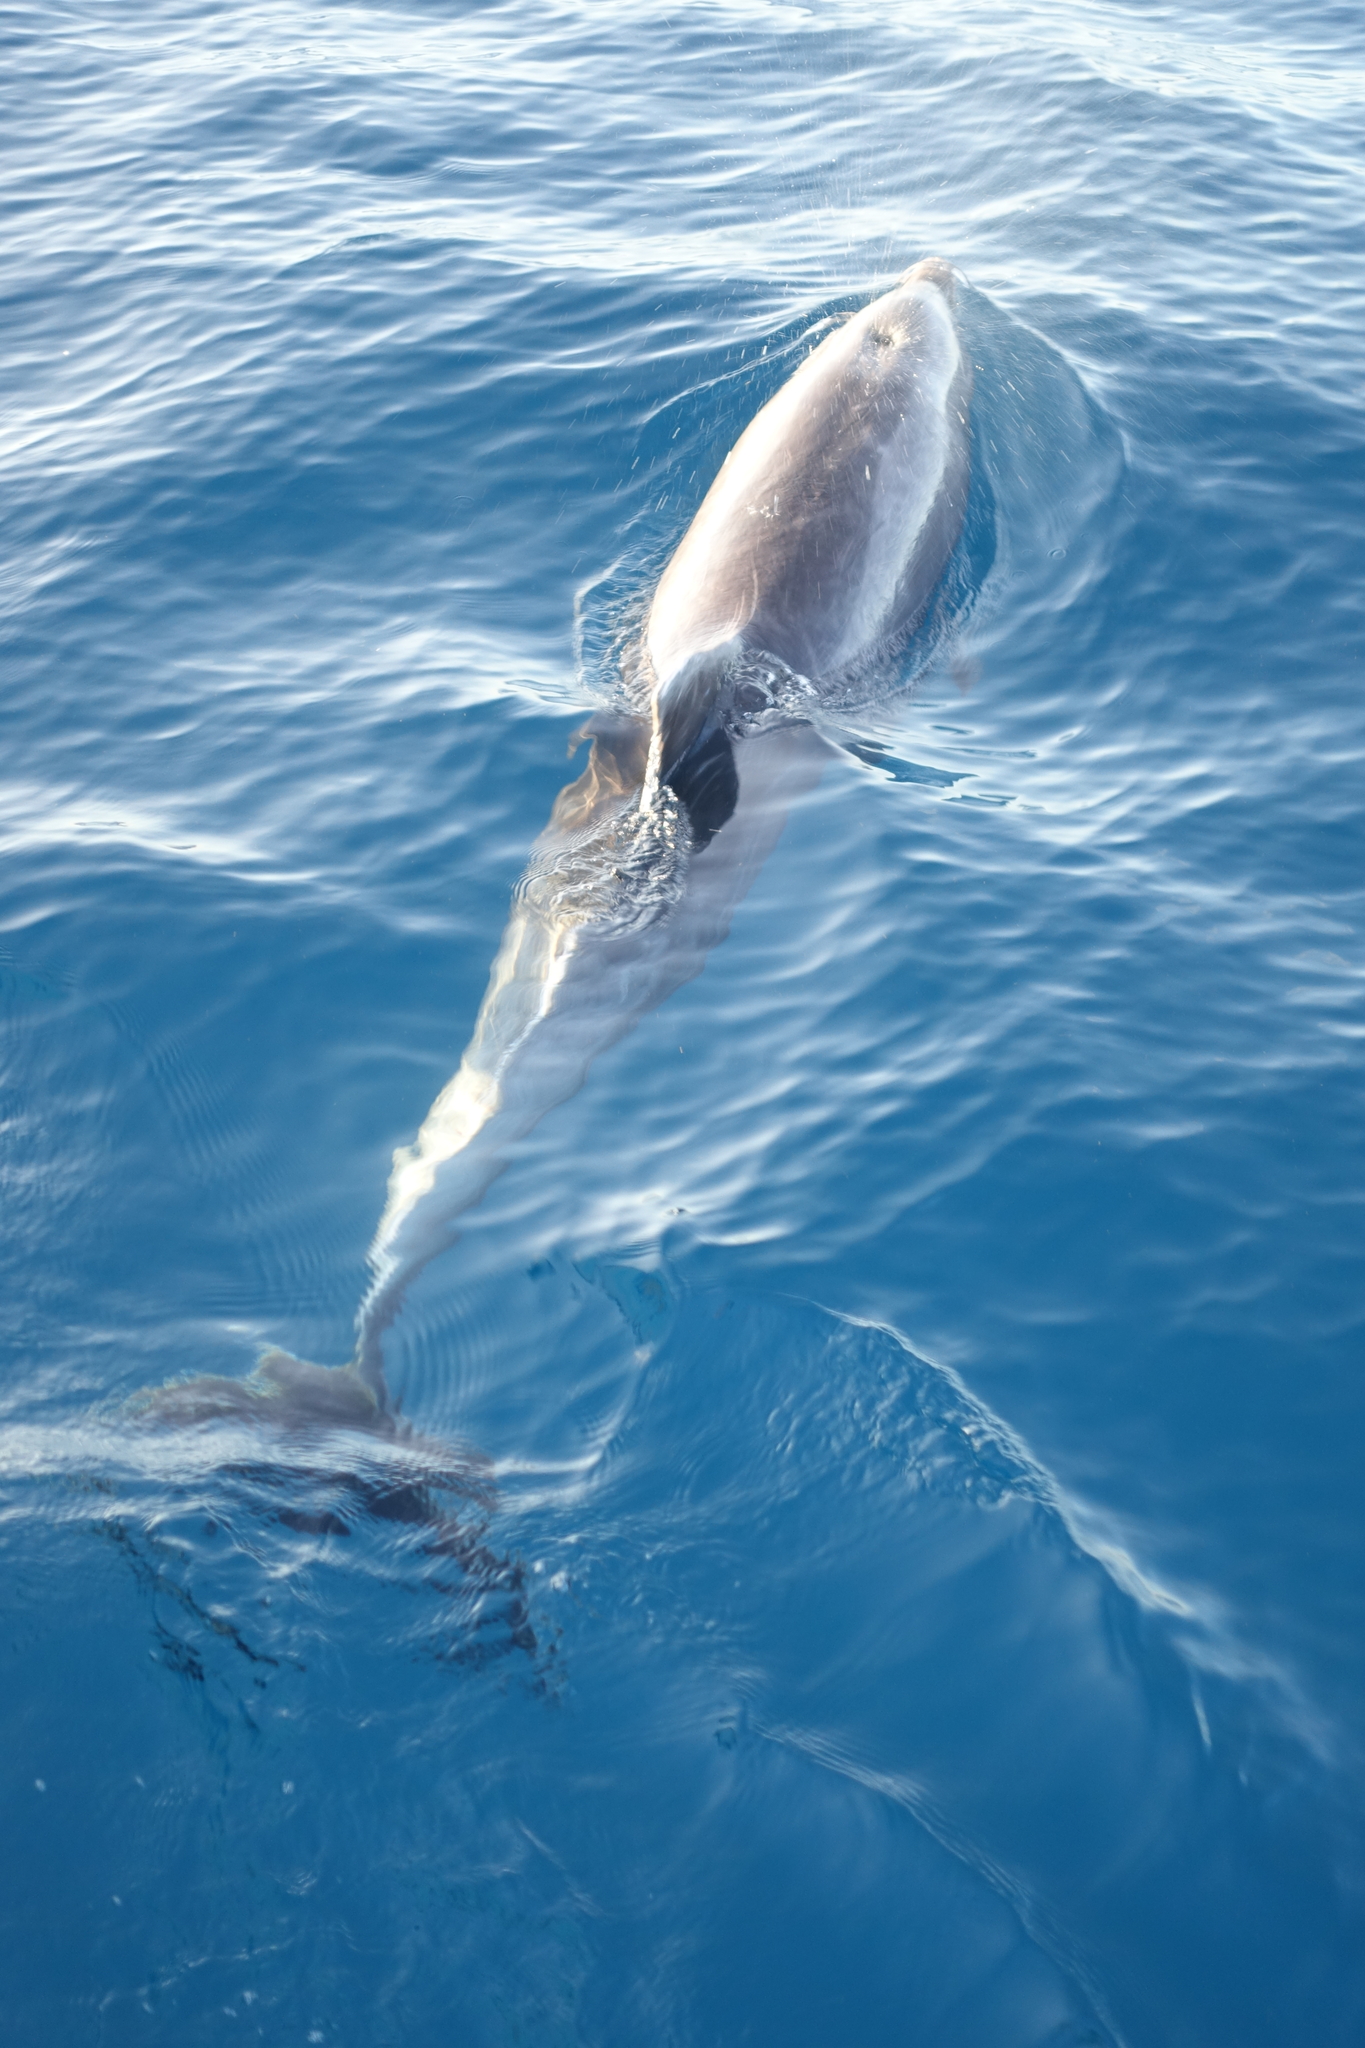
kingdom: Animalia
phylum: Chordata
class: Mammalia
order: Cetacea
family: Delphinidae
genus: Tursiops
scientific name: Tursiops truncatus
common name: Bottlenose dolphin
